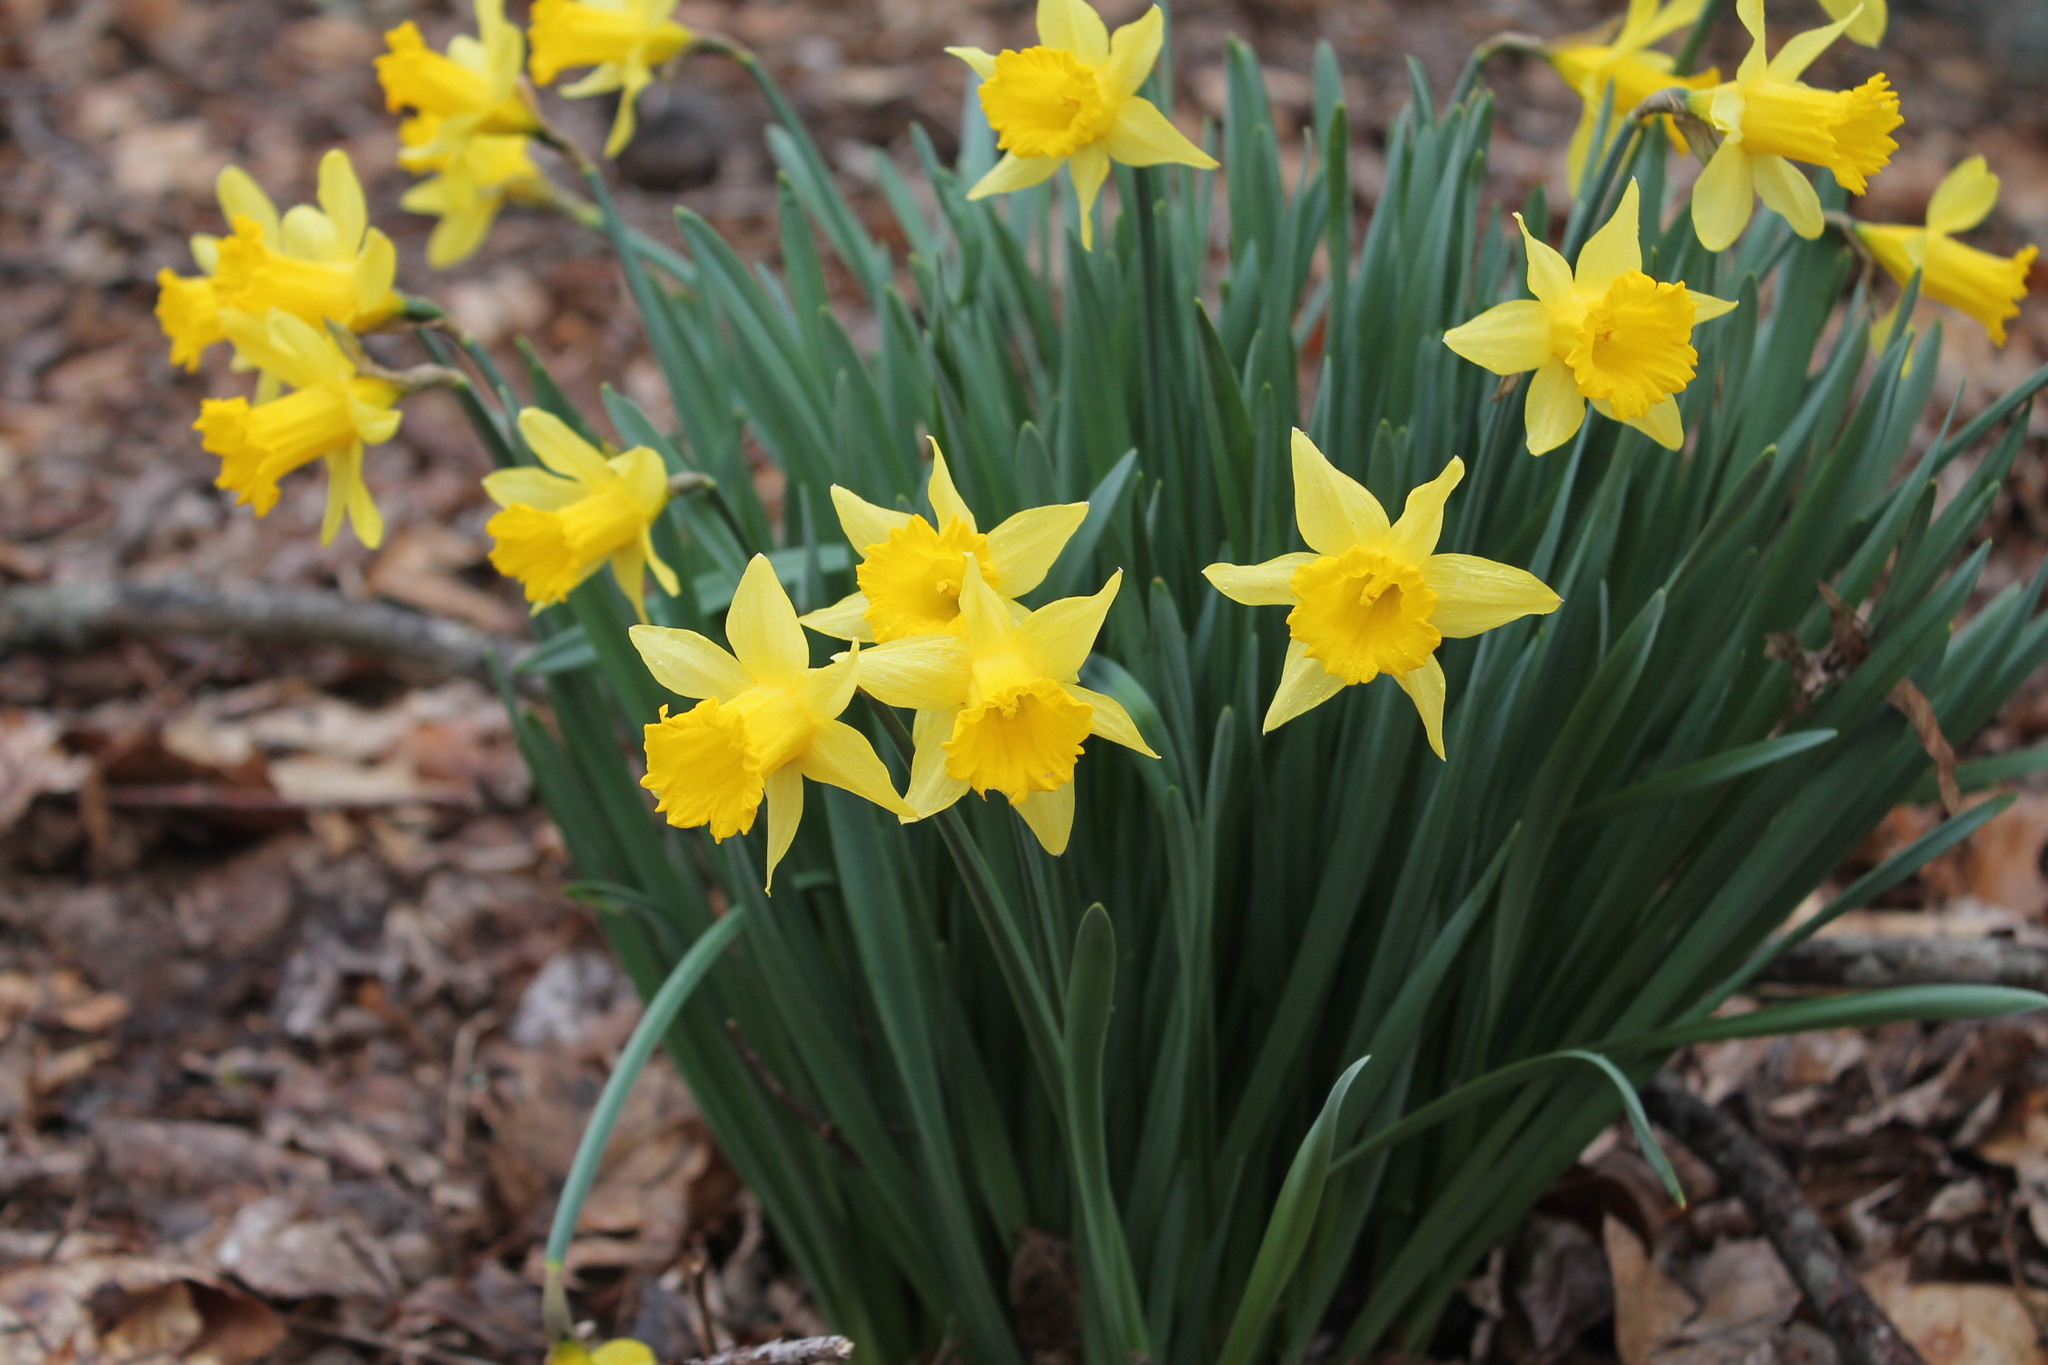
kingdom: Plantae
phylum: Tracheophyta
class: Liliopsida
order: Asparagales
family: Amaryllidaceae
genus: Narcissus
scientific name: Narcissus pseudonarcissus
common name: Daffodil
